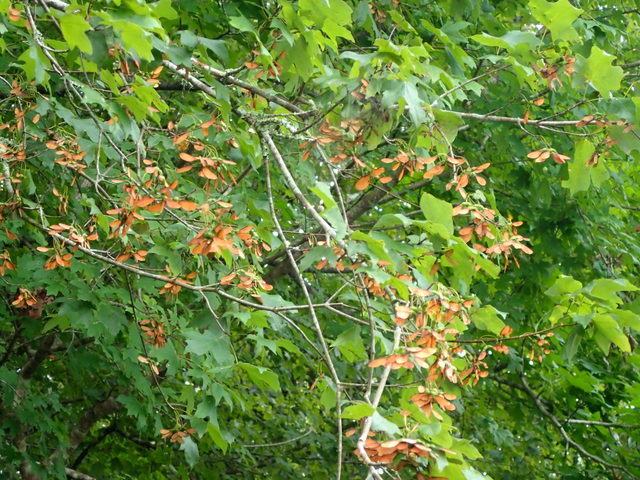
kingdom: Plantae
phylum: Tracheophyta
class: Magnoliopsida
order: Sapindales
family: Sapindaceae
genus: Acer
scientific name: Acer floridanum
